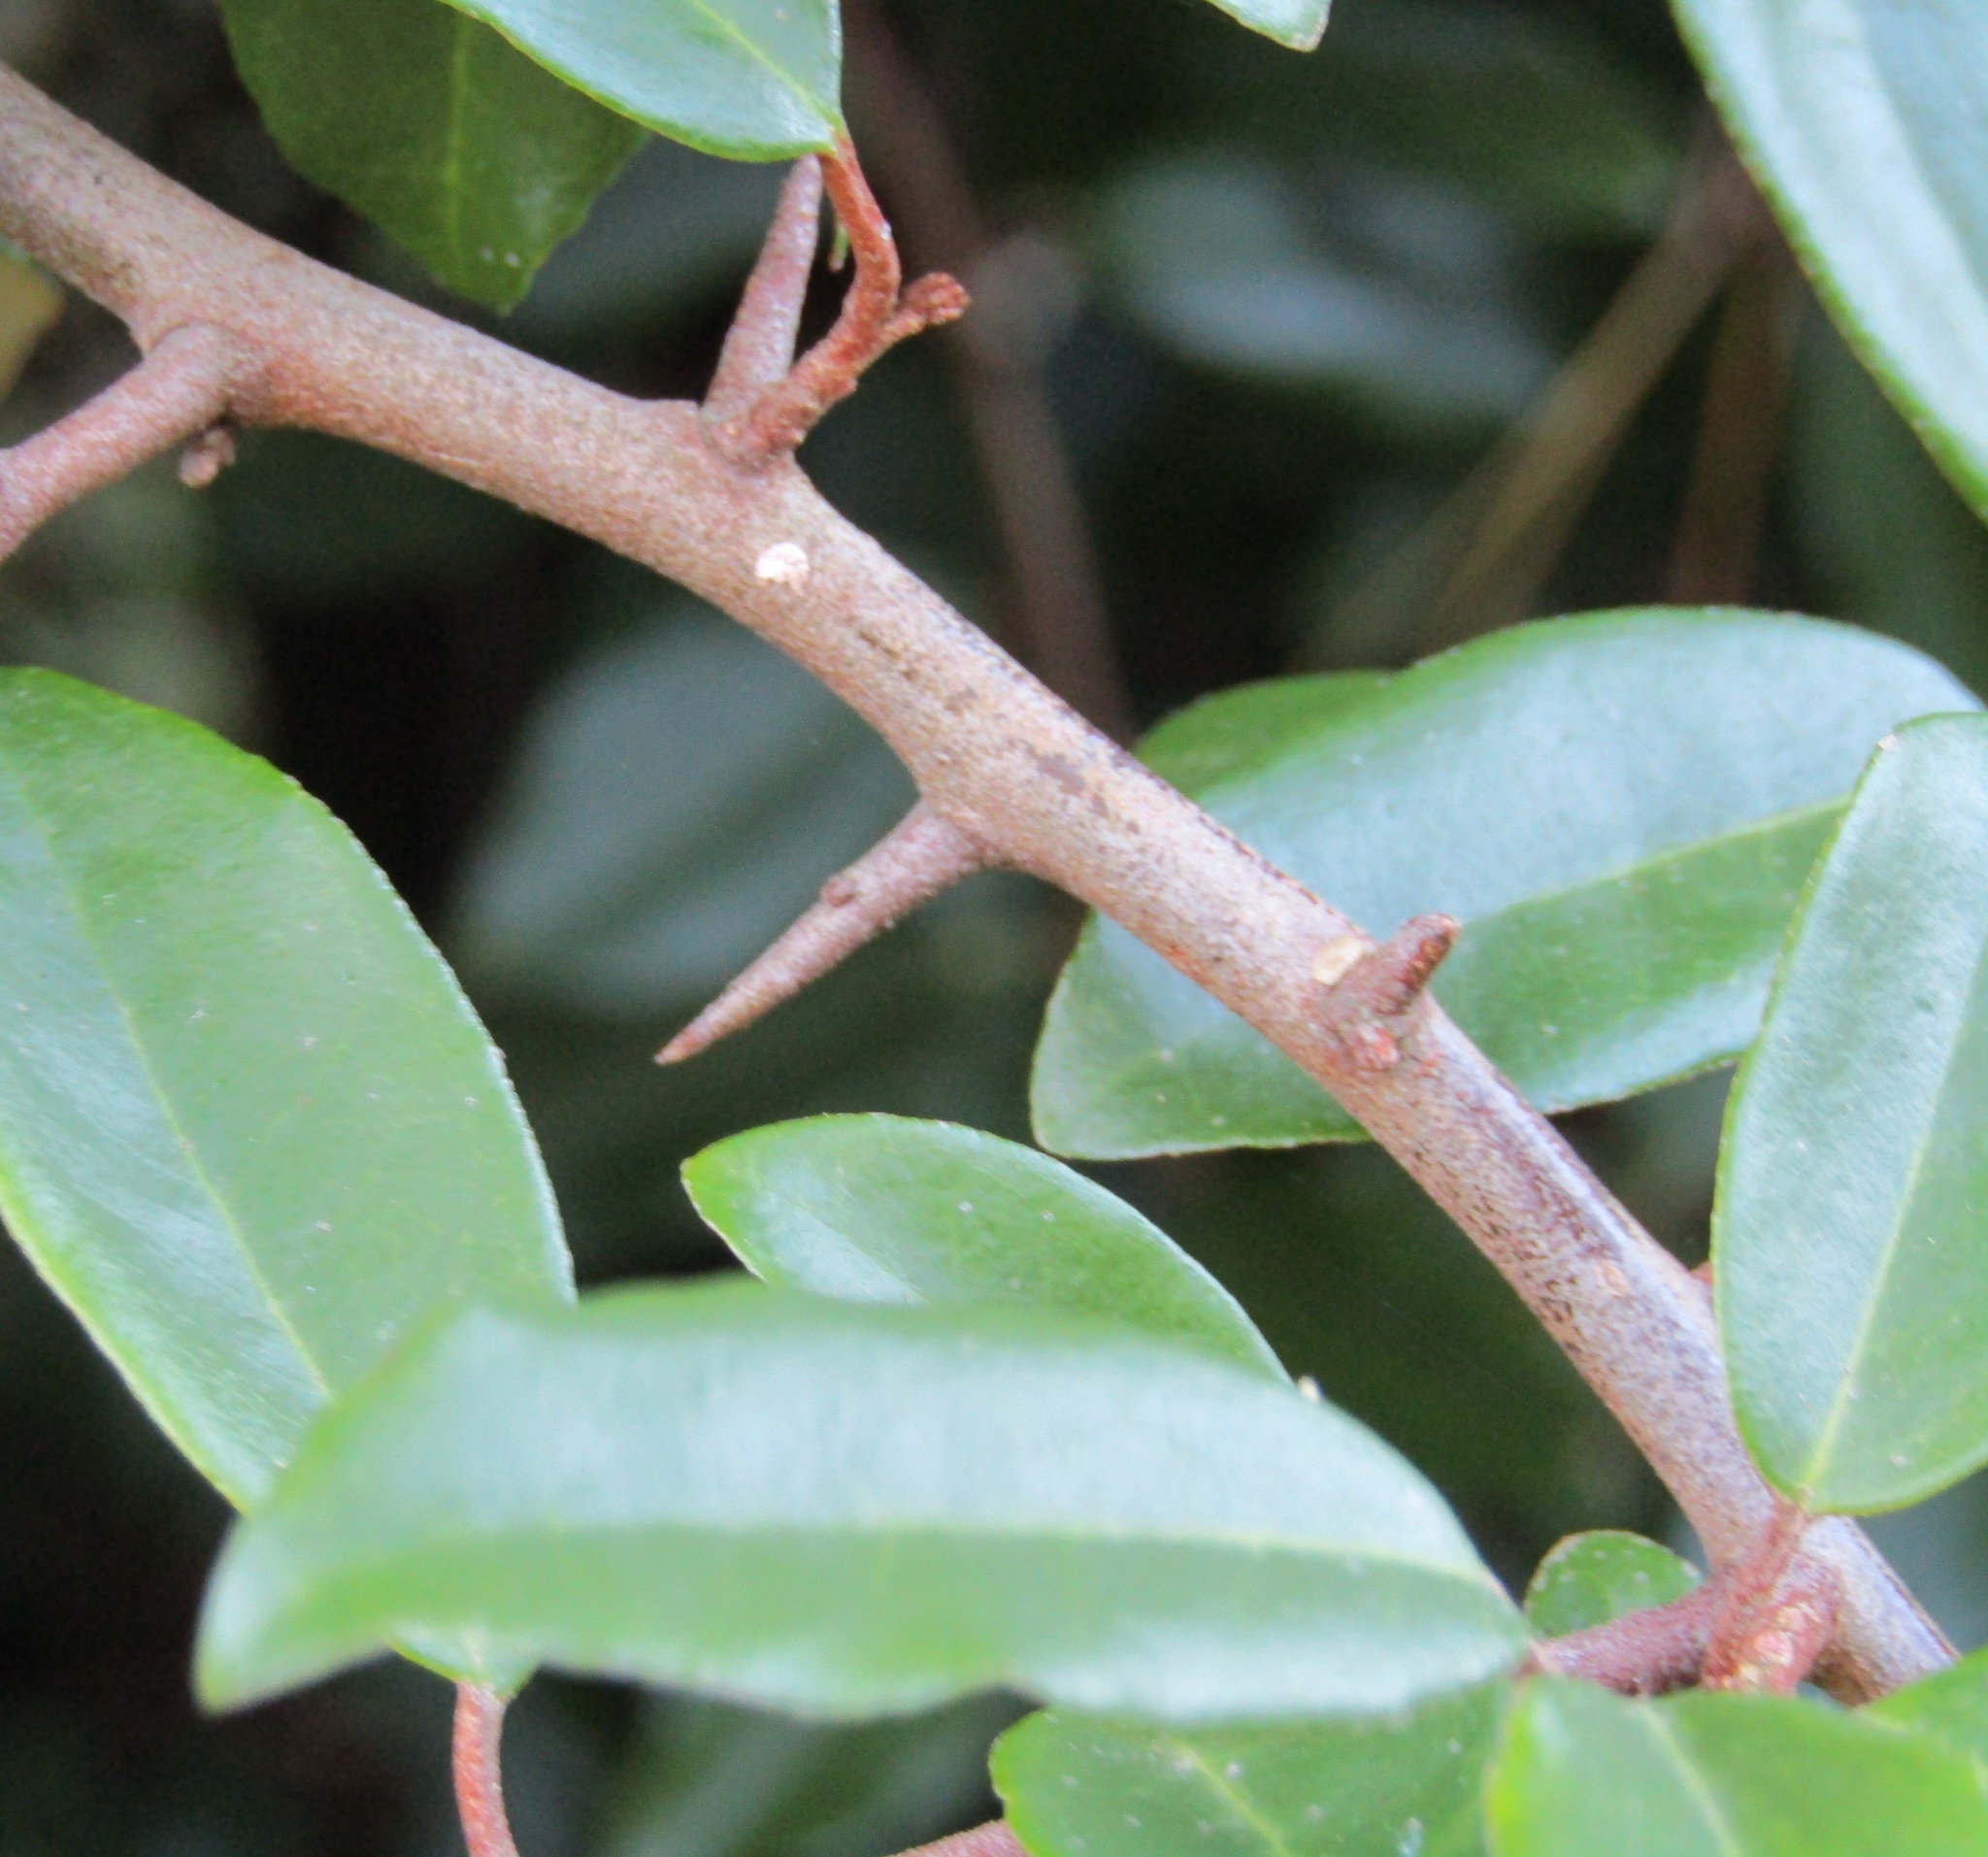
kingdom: Plantae
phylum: Tracheophyta
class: Magnoliopsida
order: Rosales
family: Elaeagnaceae
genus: Elaeagnus
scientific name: Elaeagnus reflexa
